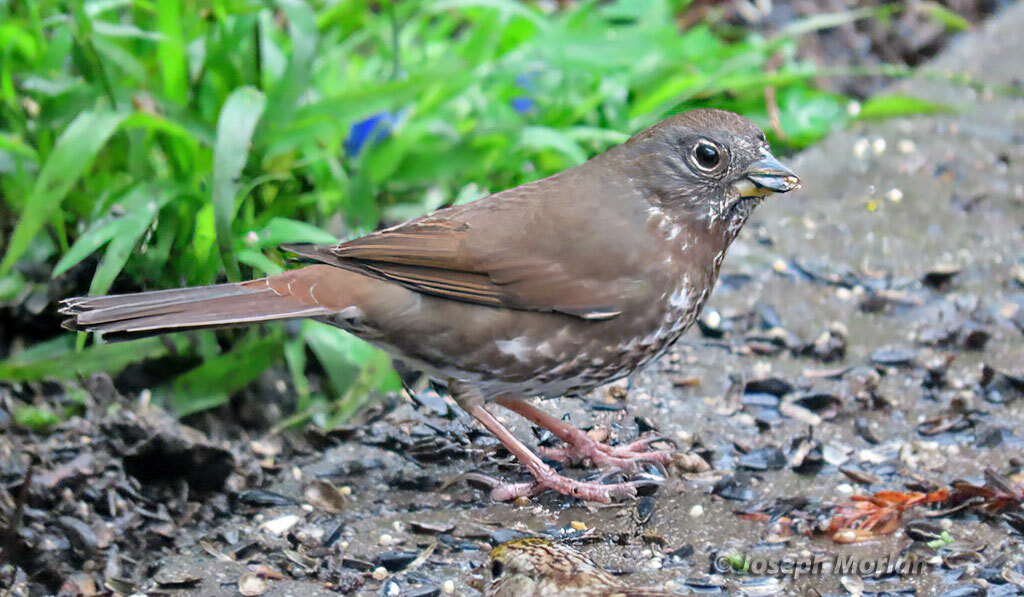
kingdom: Animalia
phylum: Chordata
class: Aves
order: Passeriformes
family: Passerellidae
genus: Passerella
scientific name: Passerella iliaca
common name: Fox sparrow
